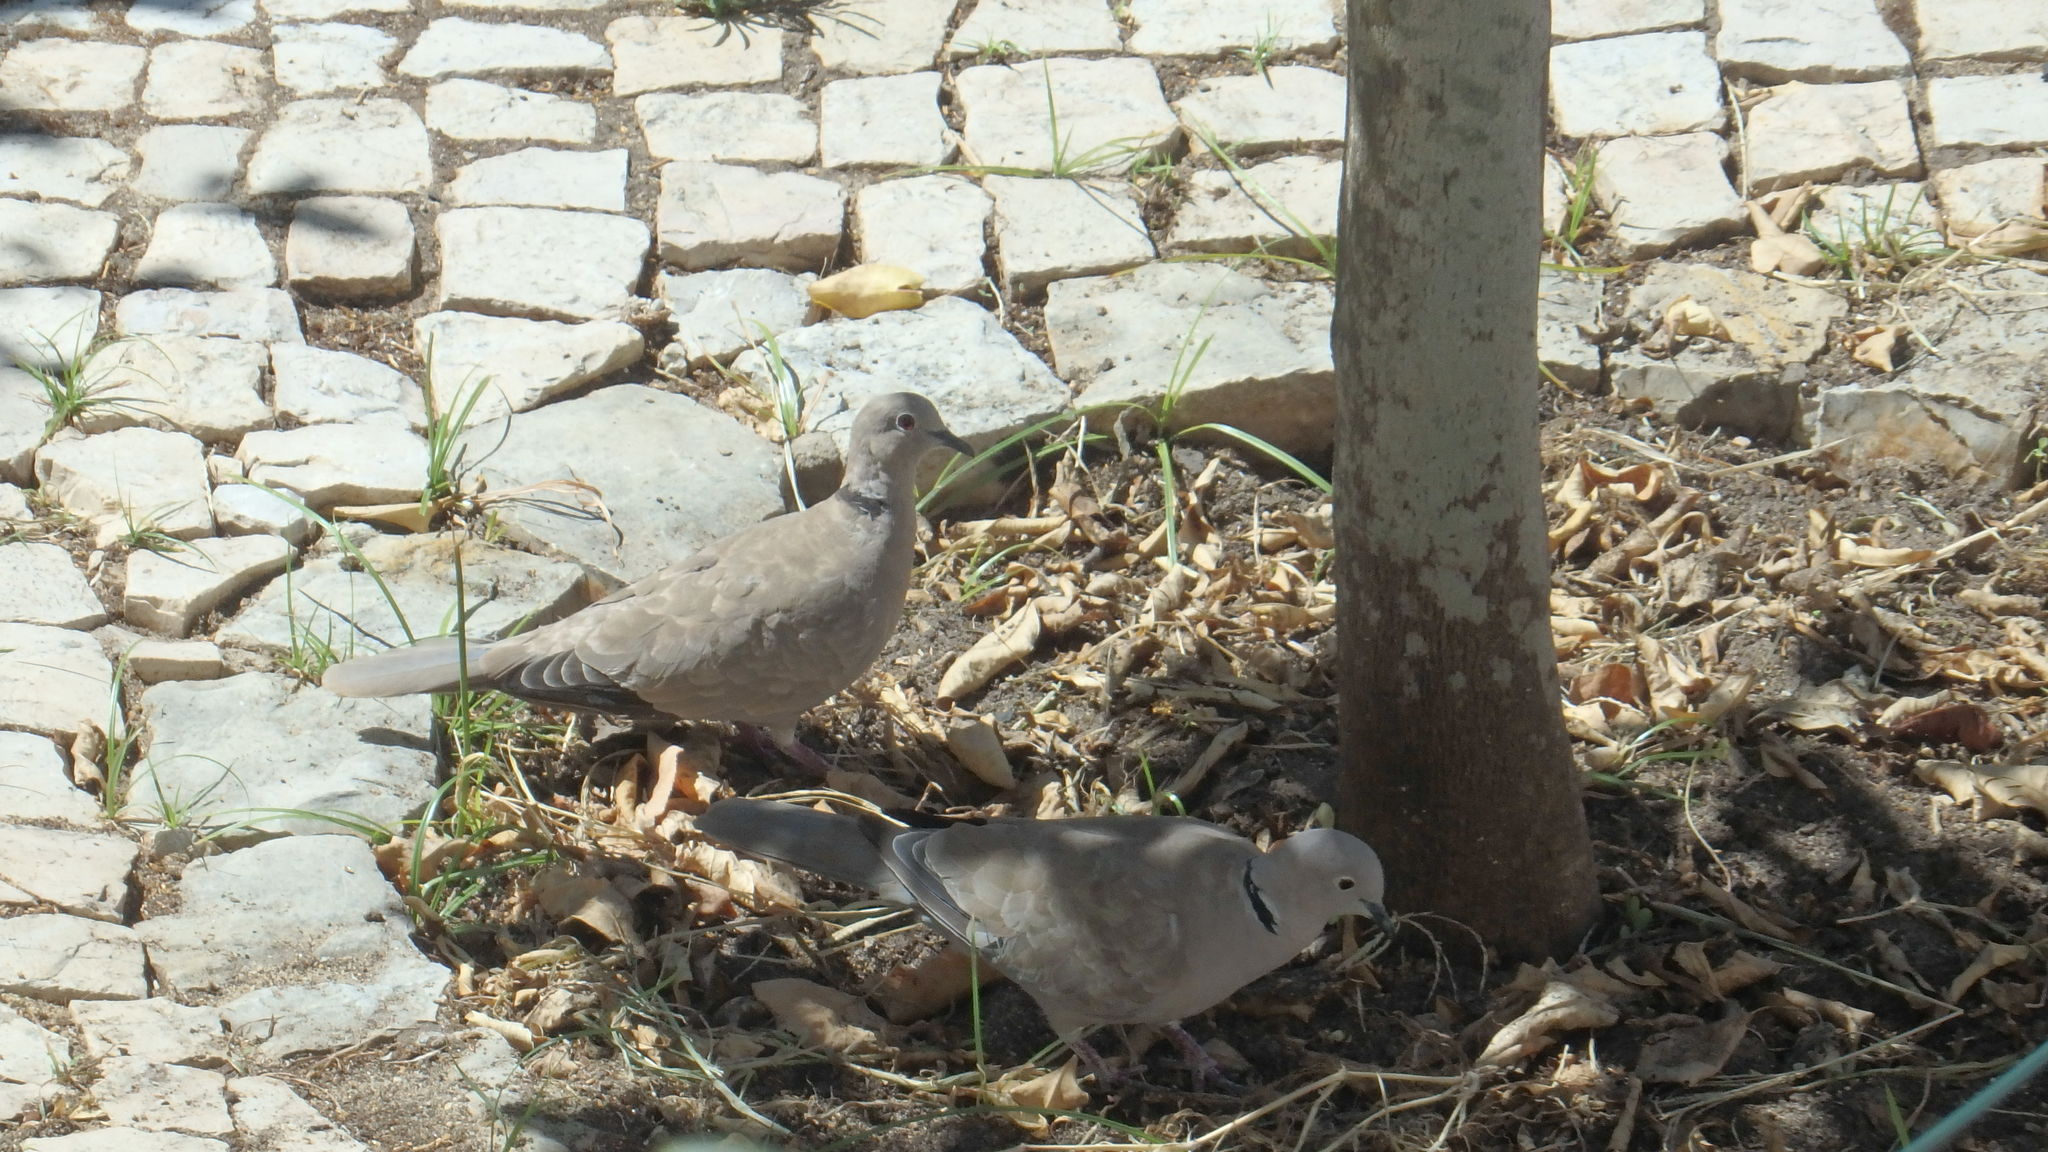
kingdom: Animalia
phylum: Chordata
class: Aves
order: Columbiformes
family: Columbidae
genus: Streptopelia
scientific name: Streptopelia decaocto
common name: Eurasian collared dove
